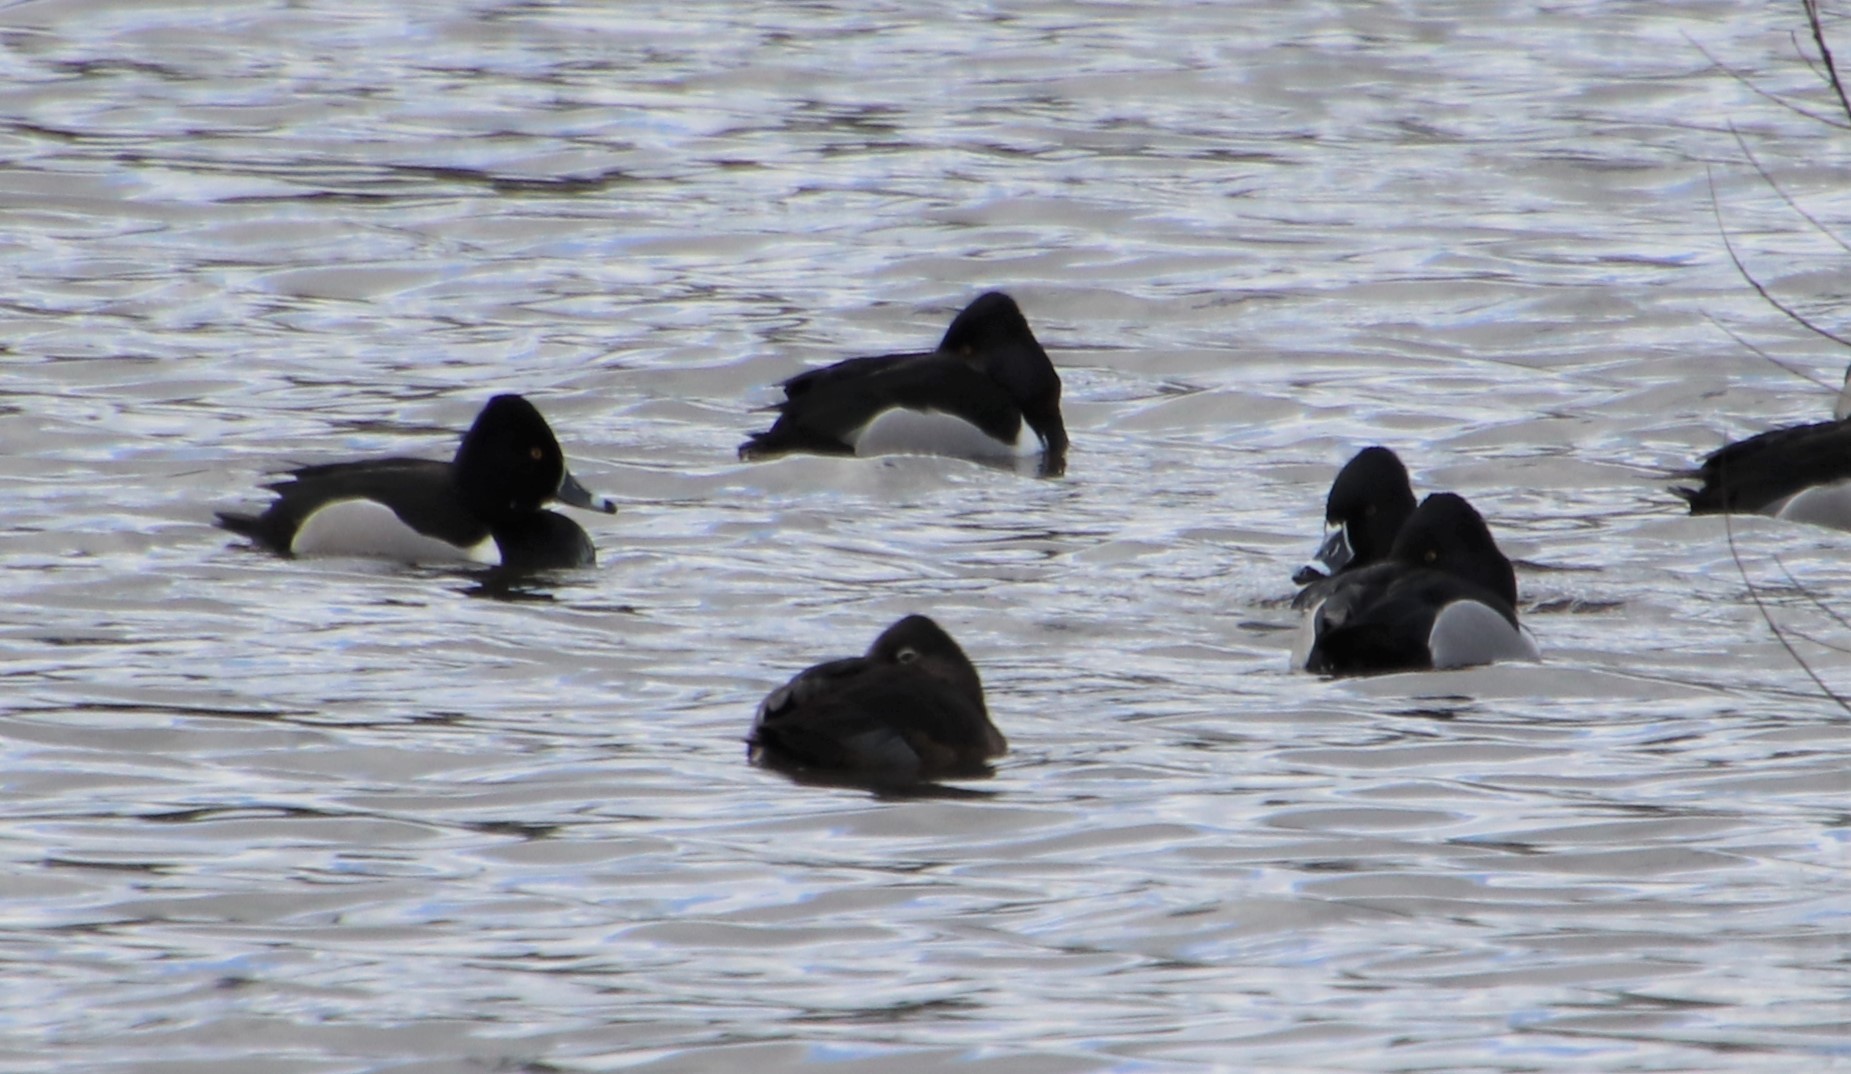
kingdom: Animalia
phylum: Chordata
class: Aves
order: Anseriformes
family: Anatidae
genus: Aythya
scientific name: Aythya collaris
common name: Ring-necked duck
